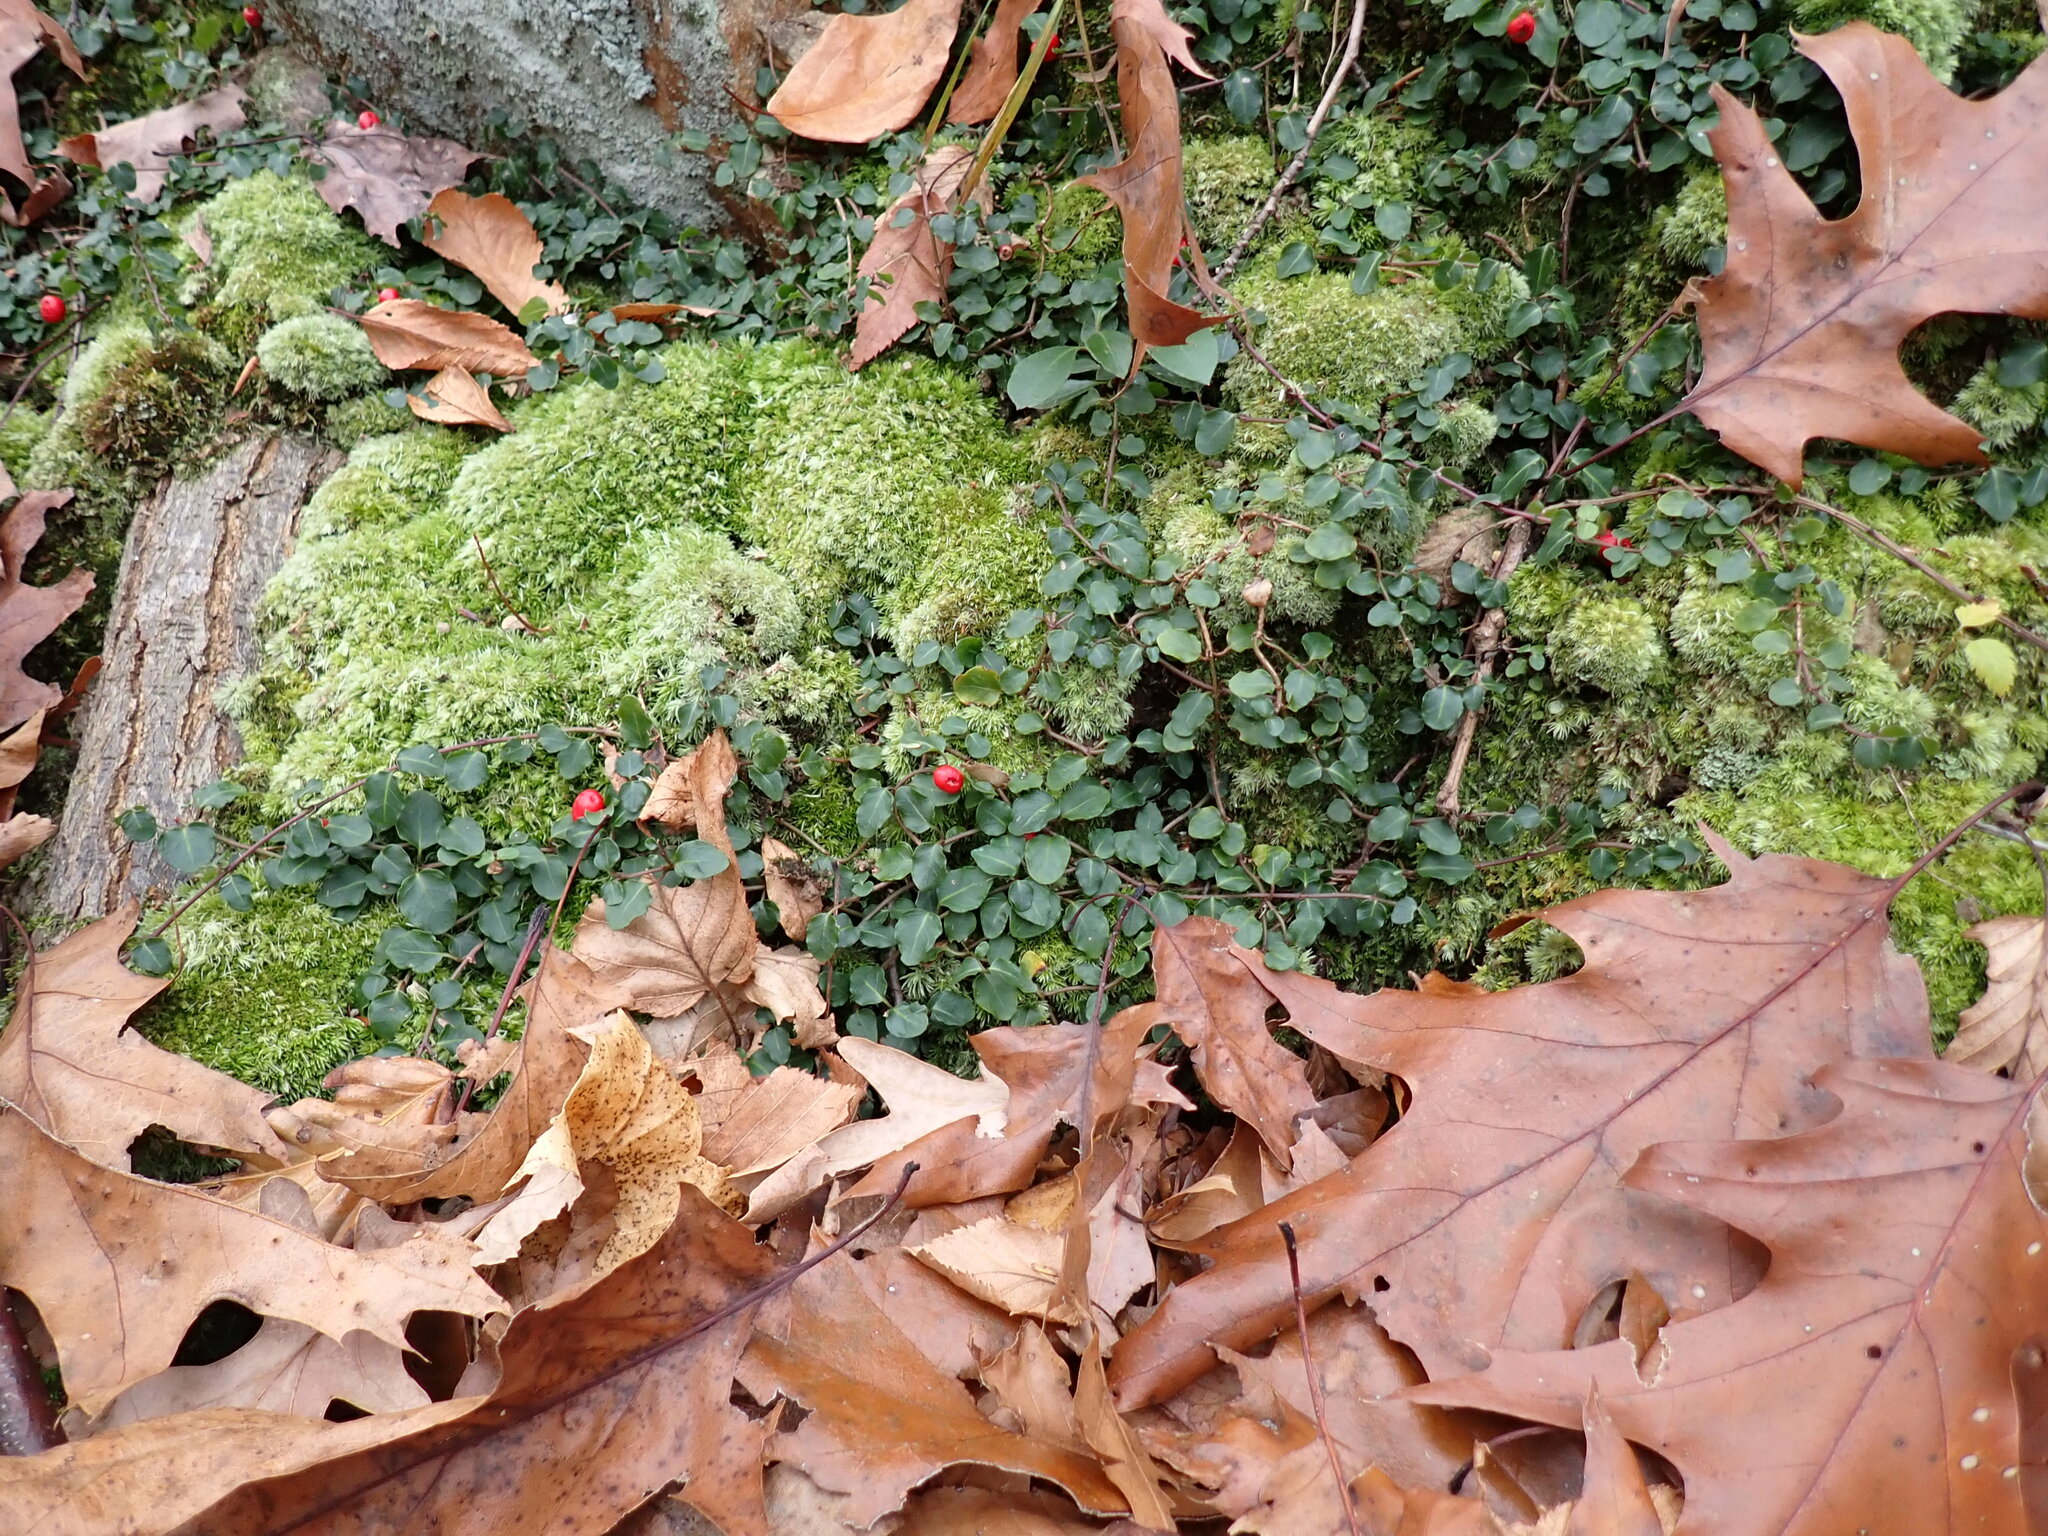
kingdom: Plantae
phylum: Tracheophyta
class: Magnoliopsida
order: Gentianales
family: Rubiaceae
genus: Mitchella
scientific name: Mitchella repens
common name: Partridge-berry
